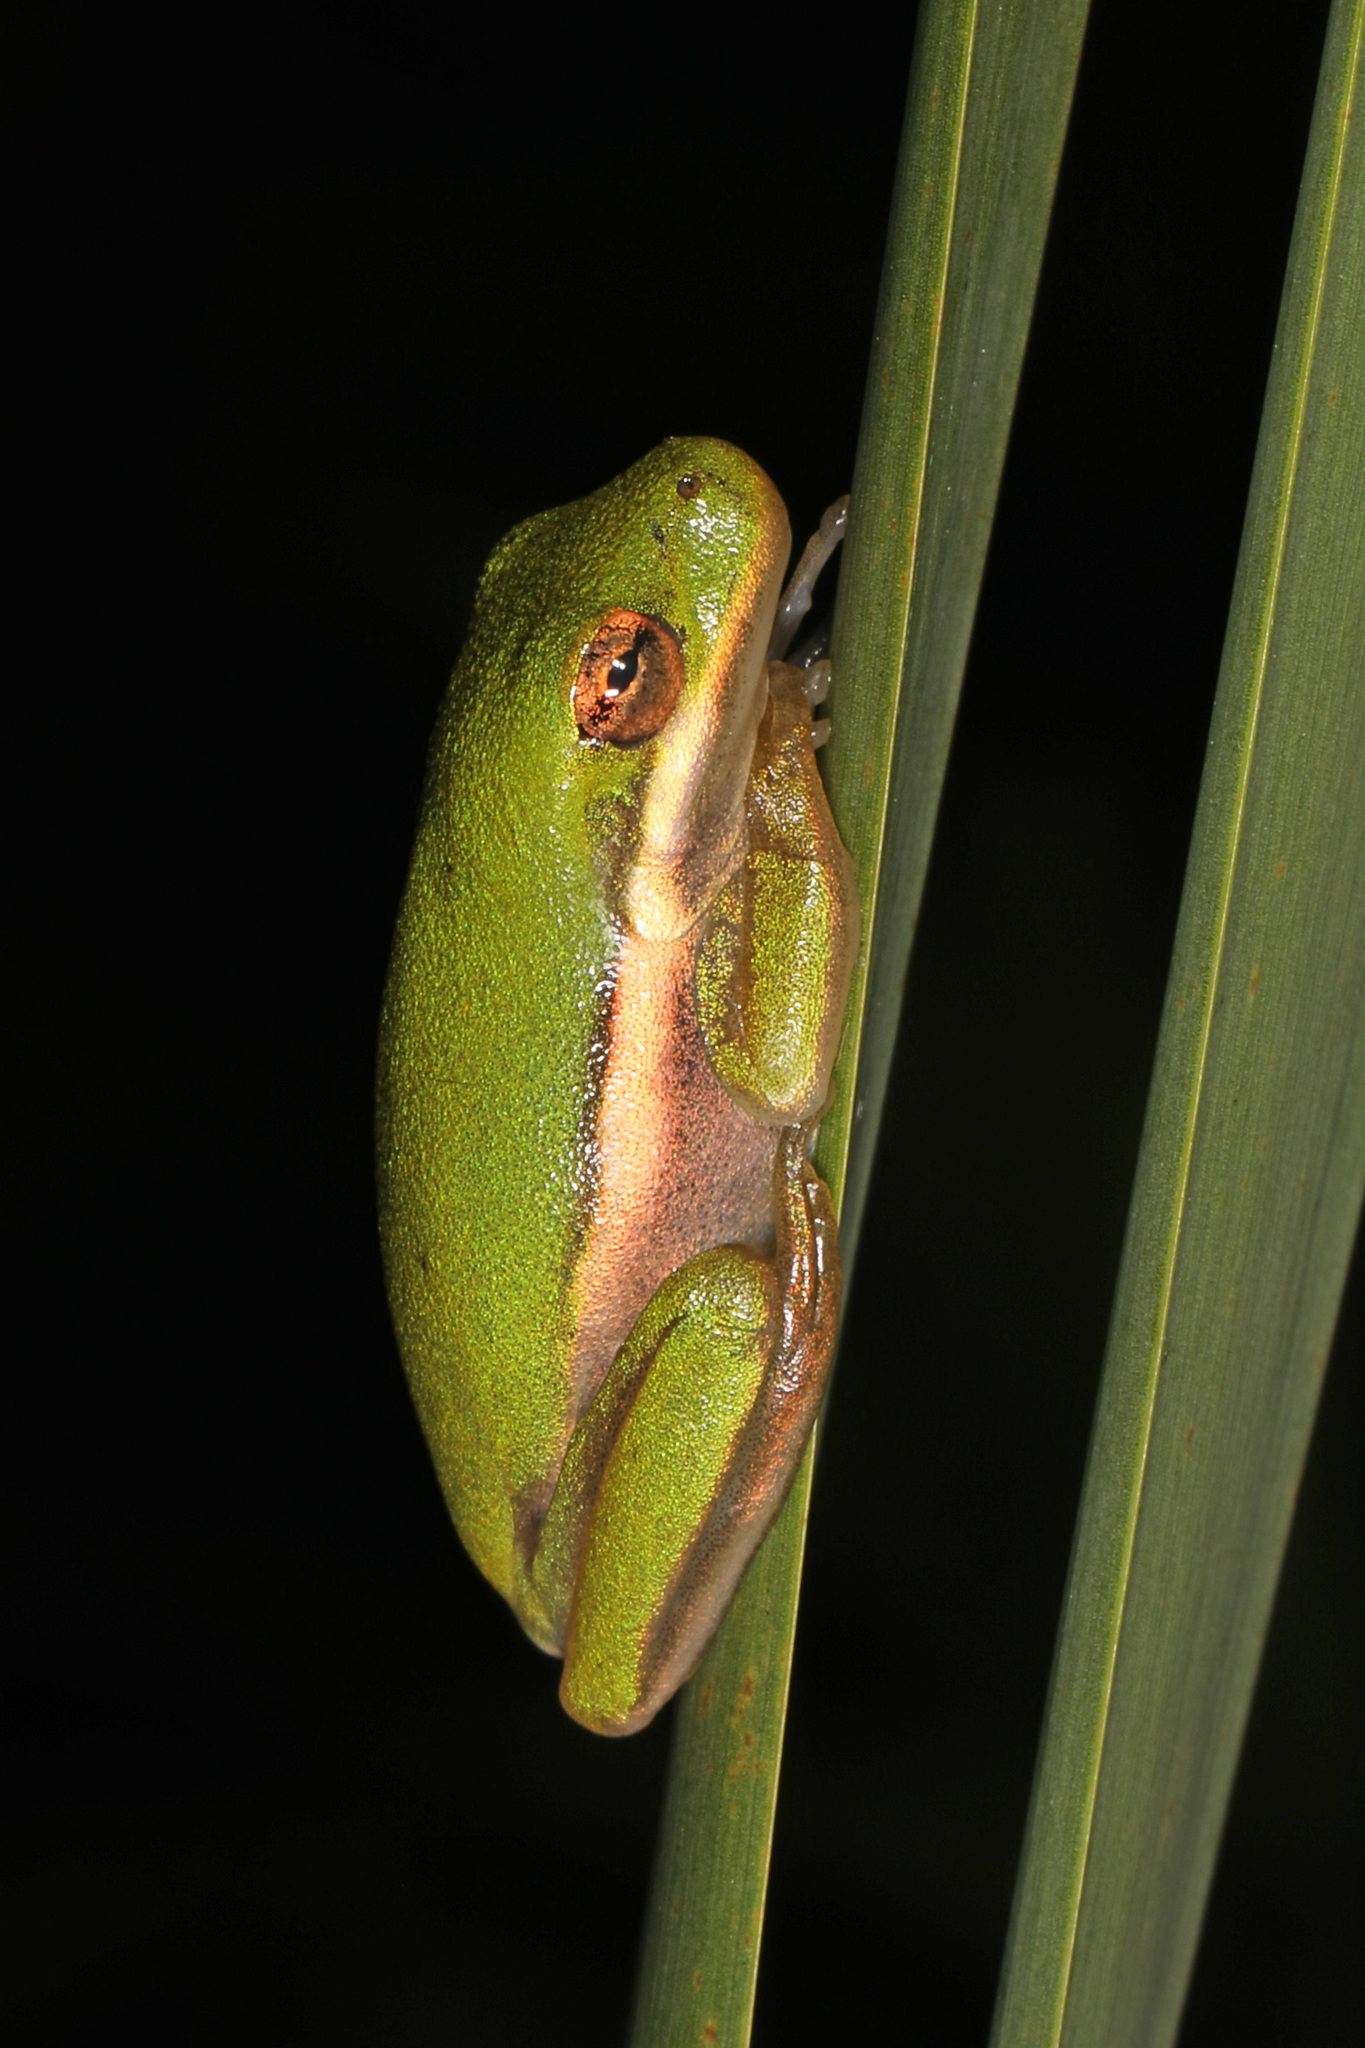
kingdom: Animalia
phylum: Chordata
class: Amphibia
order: Anura
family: Hylidae
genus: Dryophytes
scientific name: Dryophytes cinereus
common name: Green treefrog
